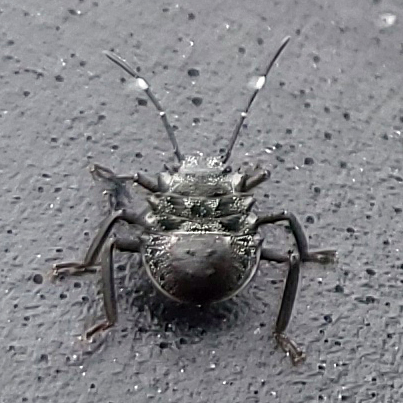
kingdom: Animalia
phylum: Arthropoda
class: Insecta
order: Hemiptera
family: Pentatomidae
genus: Halyomorpha
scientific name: Halyomorpha halys
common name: Brown marmorated stink bug
